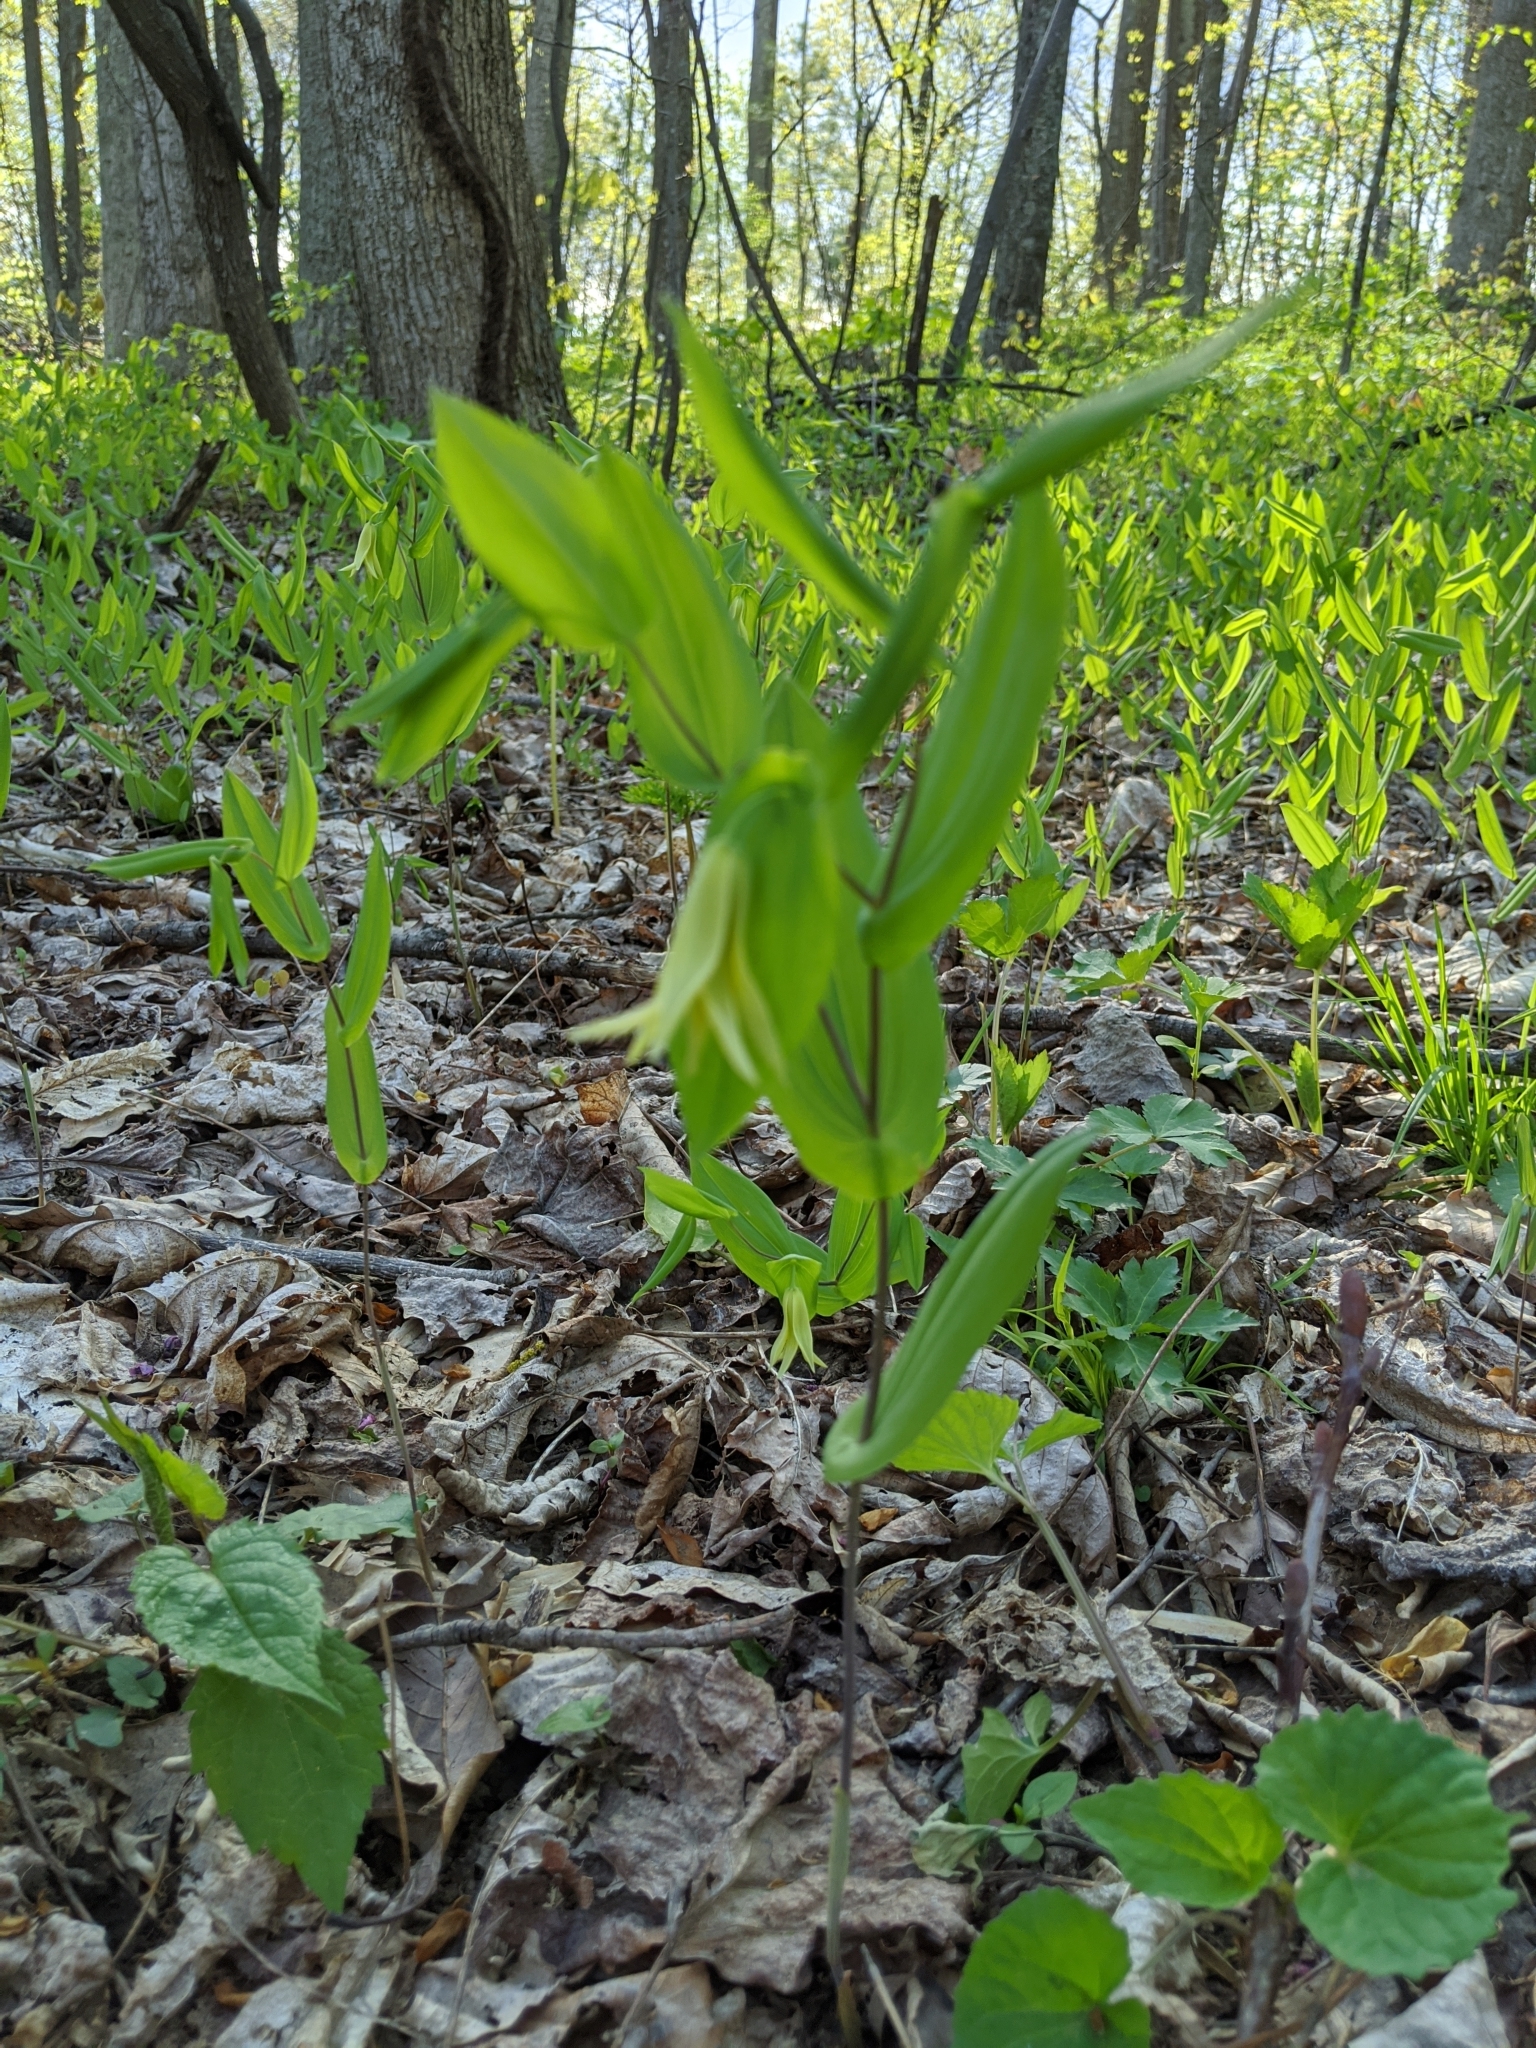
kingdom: Plantae
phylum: Tracheophyta
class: Liliopsida
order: Liliales
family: Colchicaceae
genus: Uvularia
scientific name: Uvularia perfoliata
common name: Perfoliate bellwort
